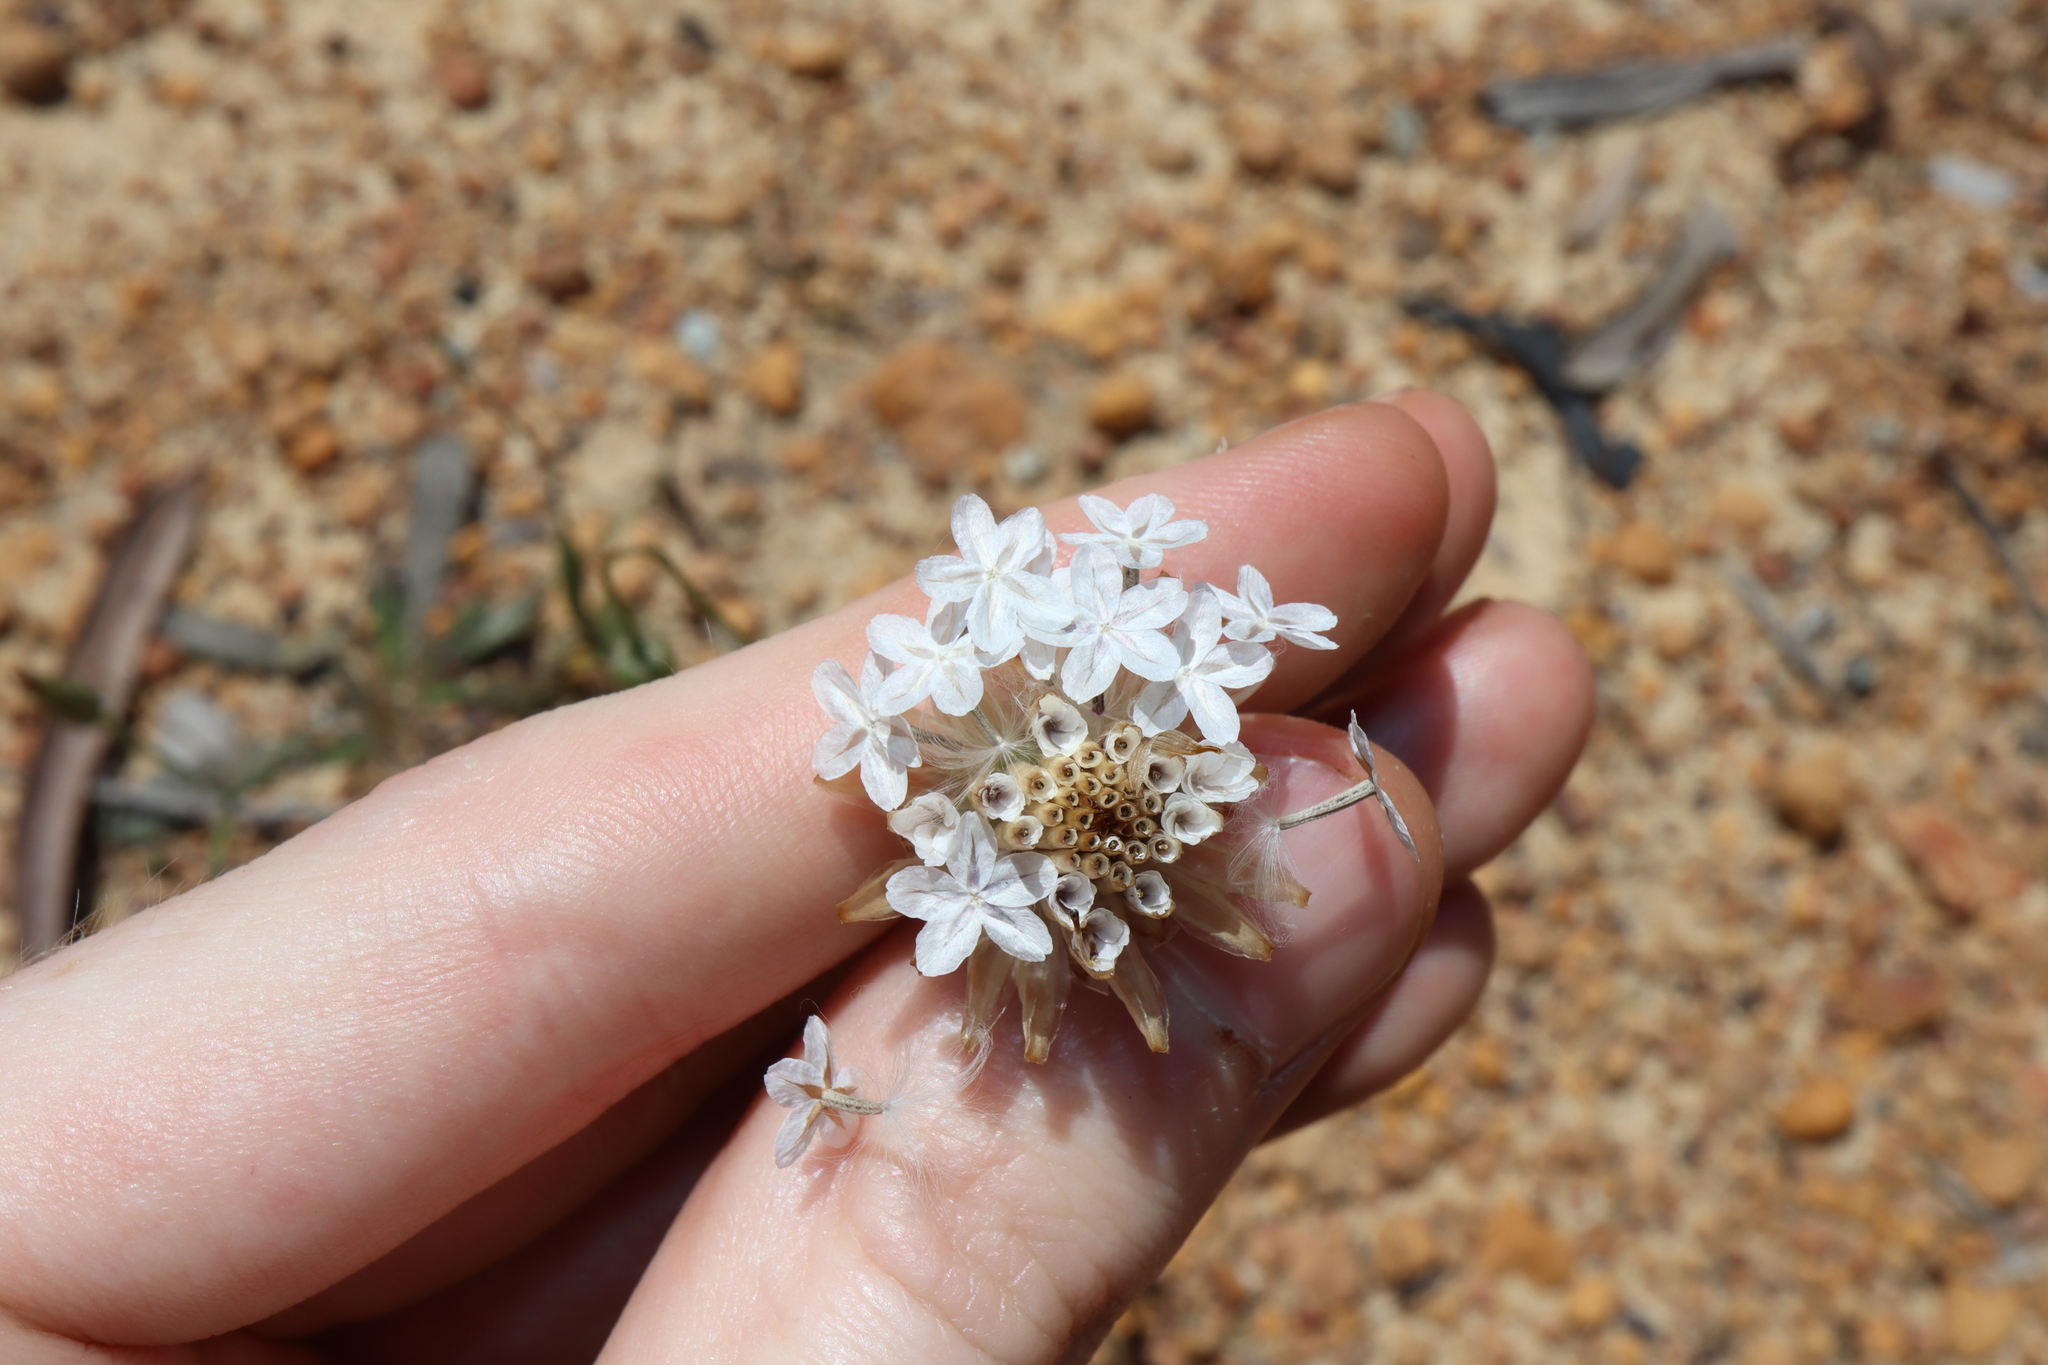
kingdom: Plantae
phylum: Tracheophyta
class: Magnoliopsida
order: Asterales
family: Asteraceae
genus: Ursinia
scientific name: Ursinia anthemoides
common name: Ursinia
